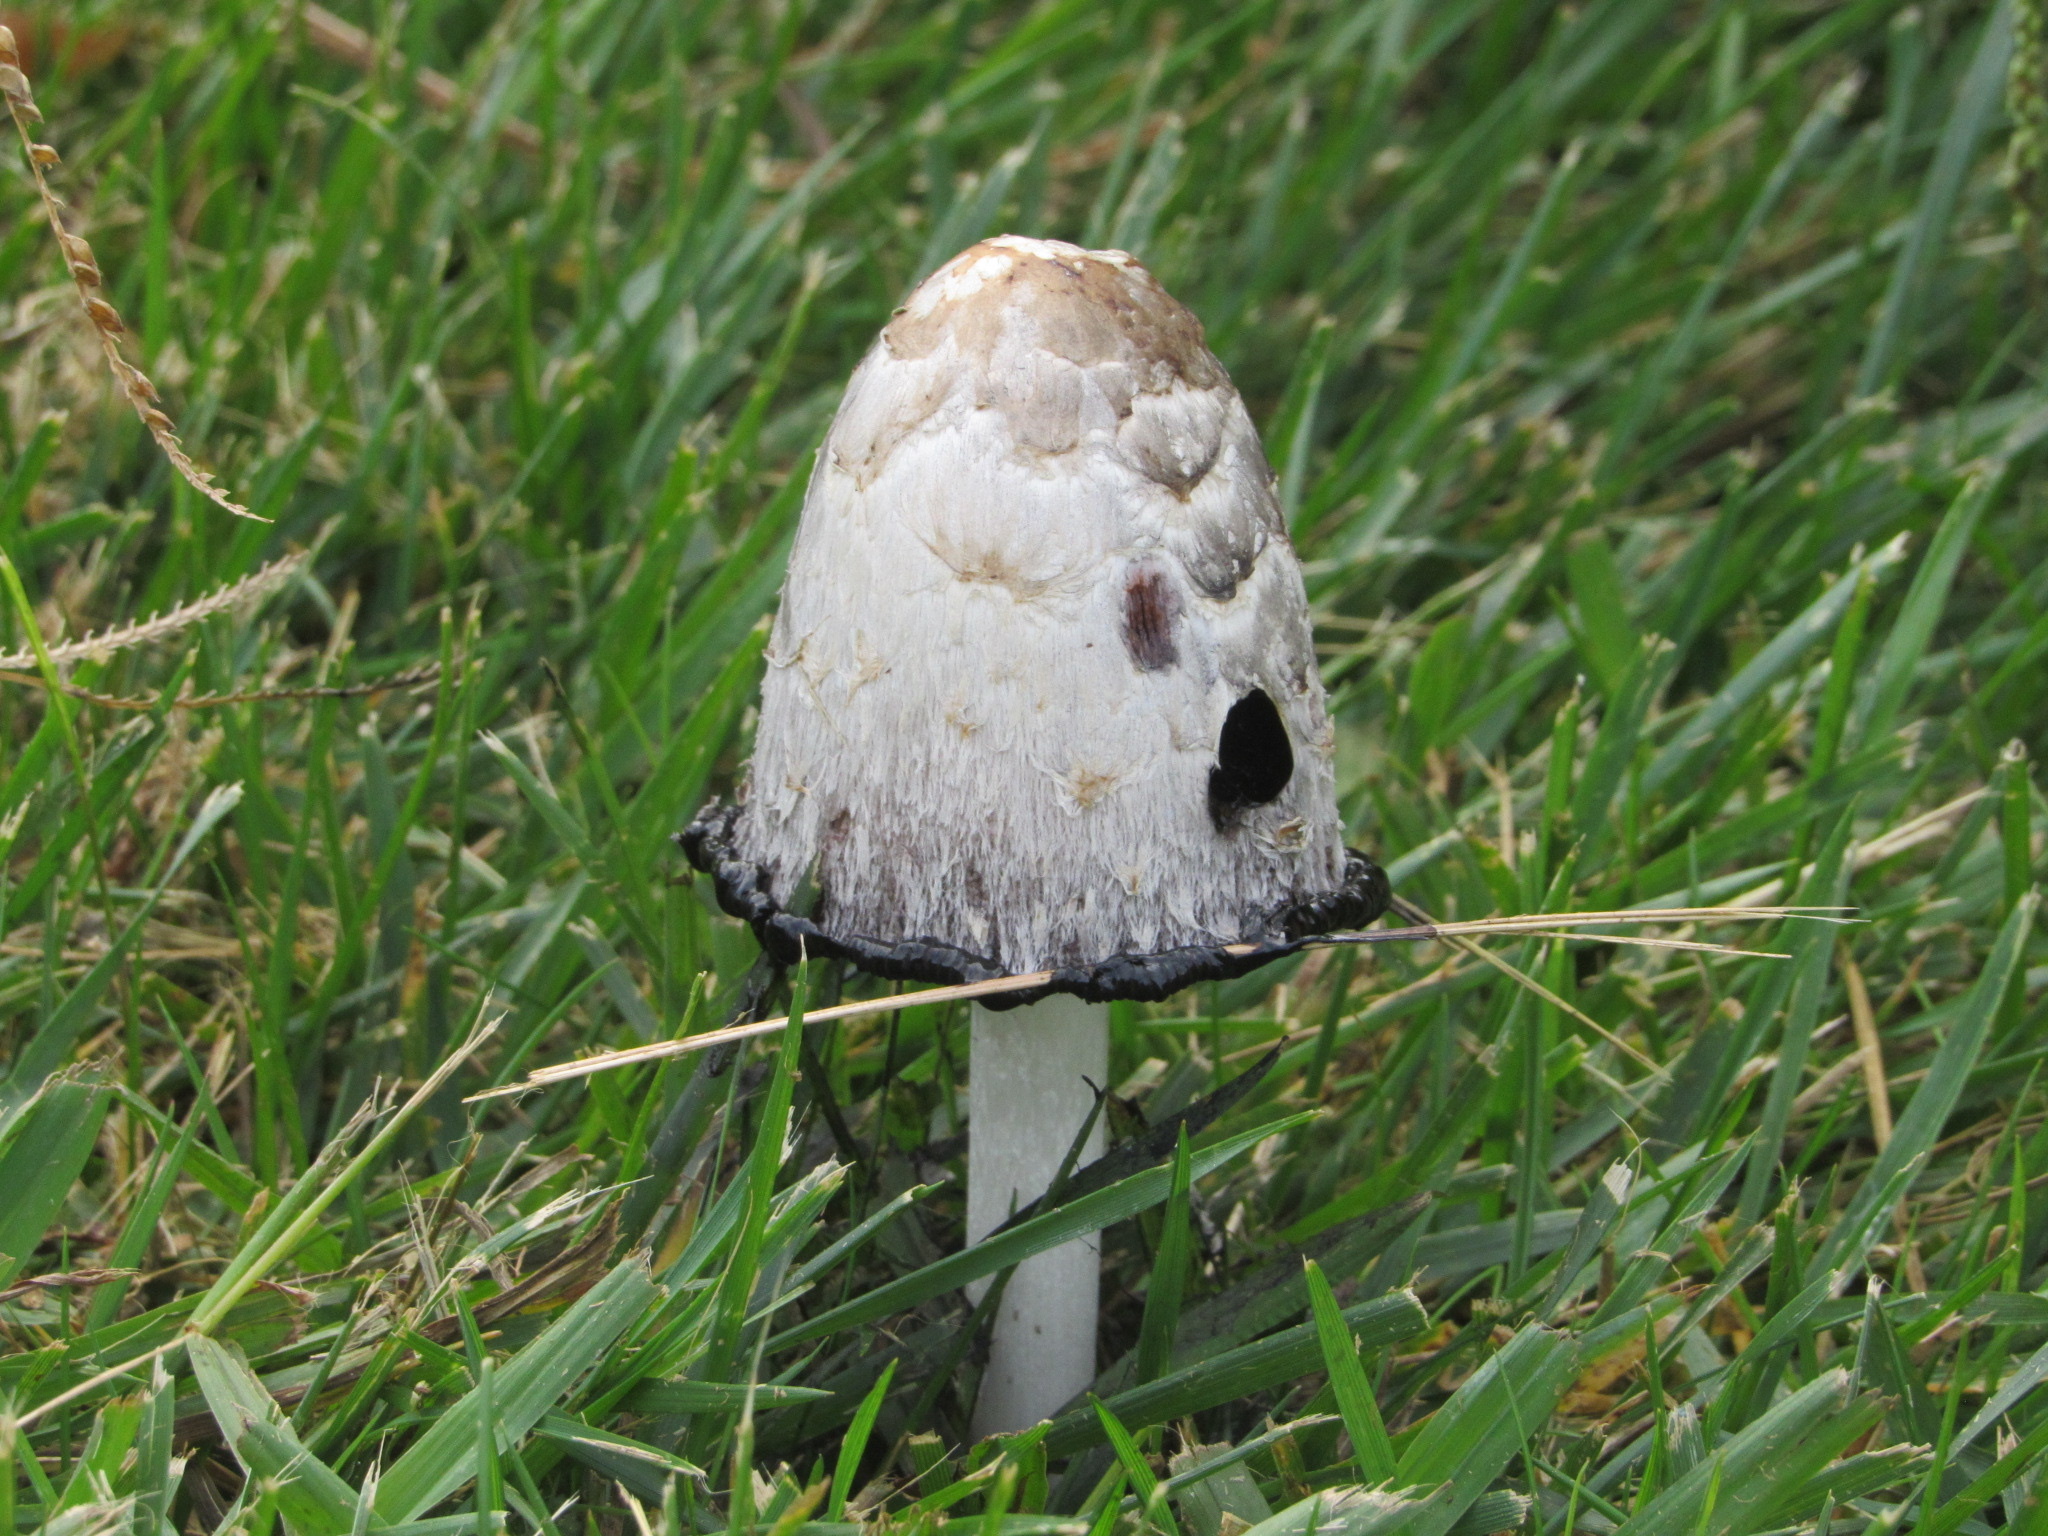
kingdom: Fungi
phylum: Basidiomycota
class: Agaricomycetes
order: Agaricales
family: Agaricaceae
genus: Coprinus
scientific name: Coprinus comatus
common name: Lawyer's wig
